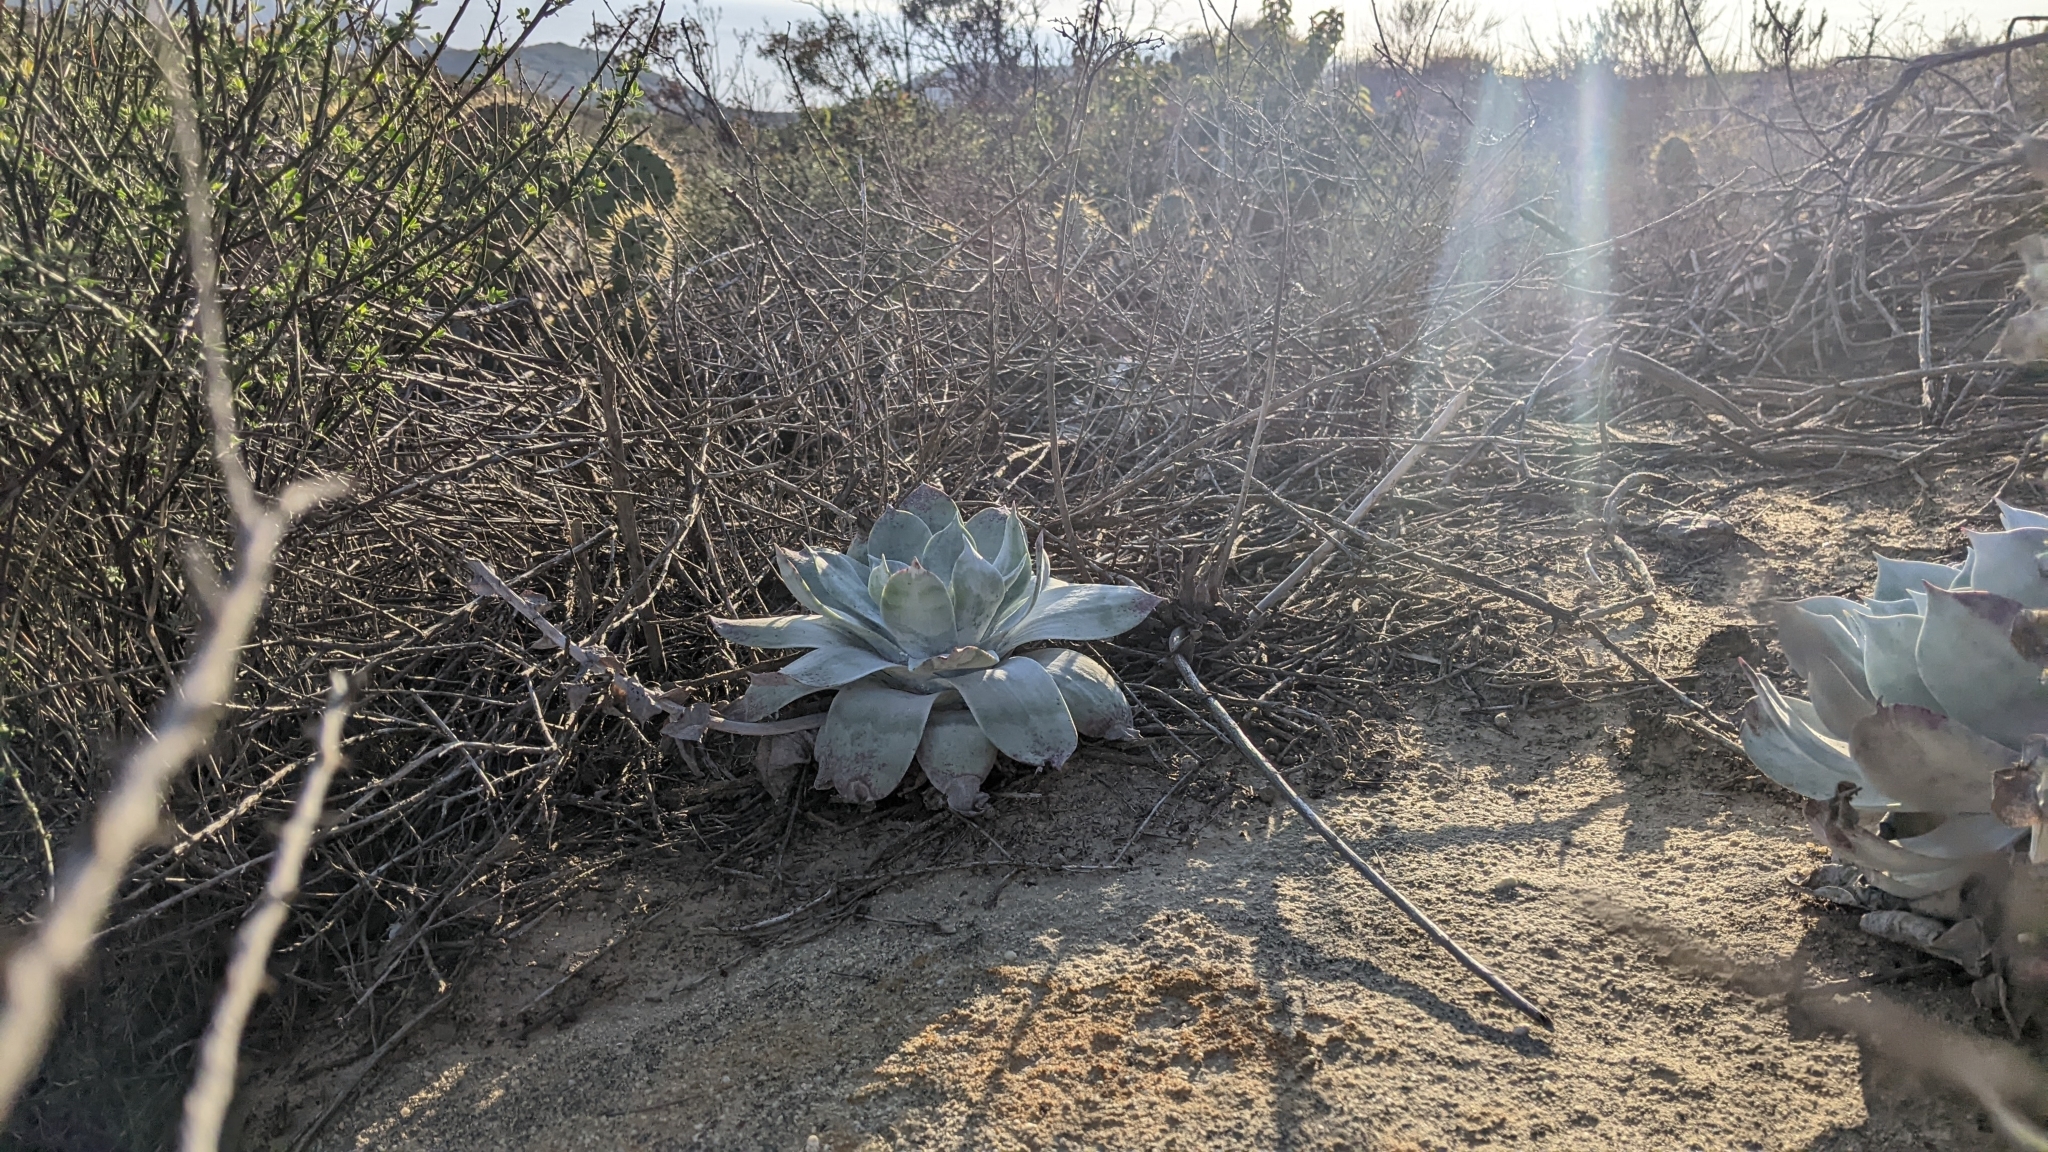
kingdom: Plantae
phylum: Tracheophyta
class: Magnoliopsida
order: Saxifragales
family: Crassulaceae
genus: Dudleya
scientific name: Dudleya pulverulenta
